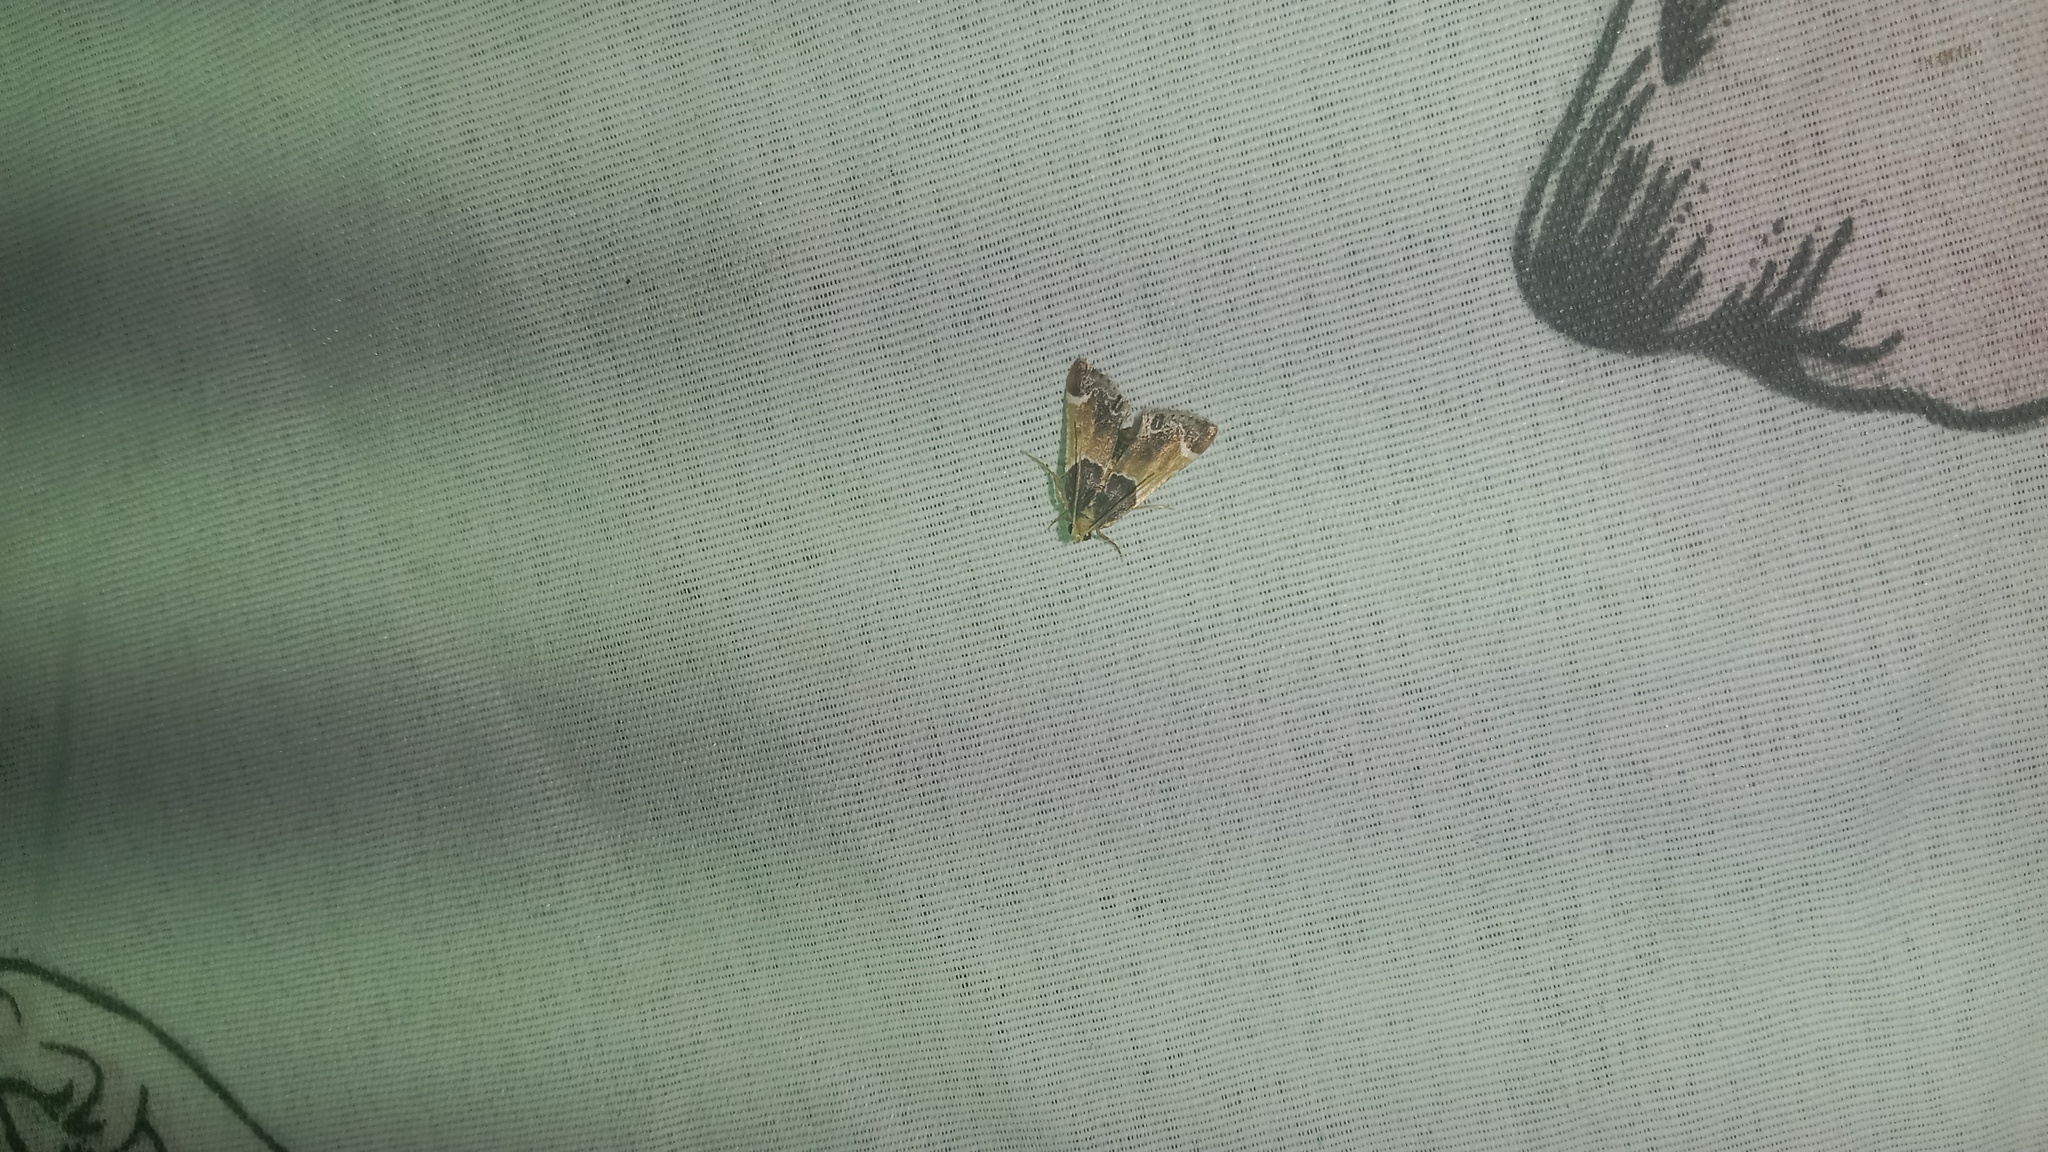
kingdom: Animalia
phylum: Arthropoda
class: Insecta
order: Lepidoptera
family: Pyralidae
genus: Pyralis
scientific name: Pyralis farinalis
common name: Meal moth
